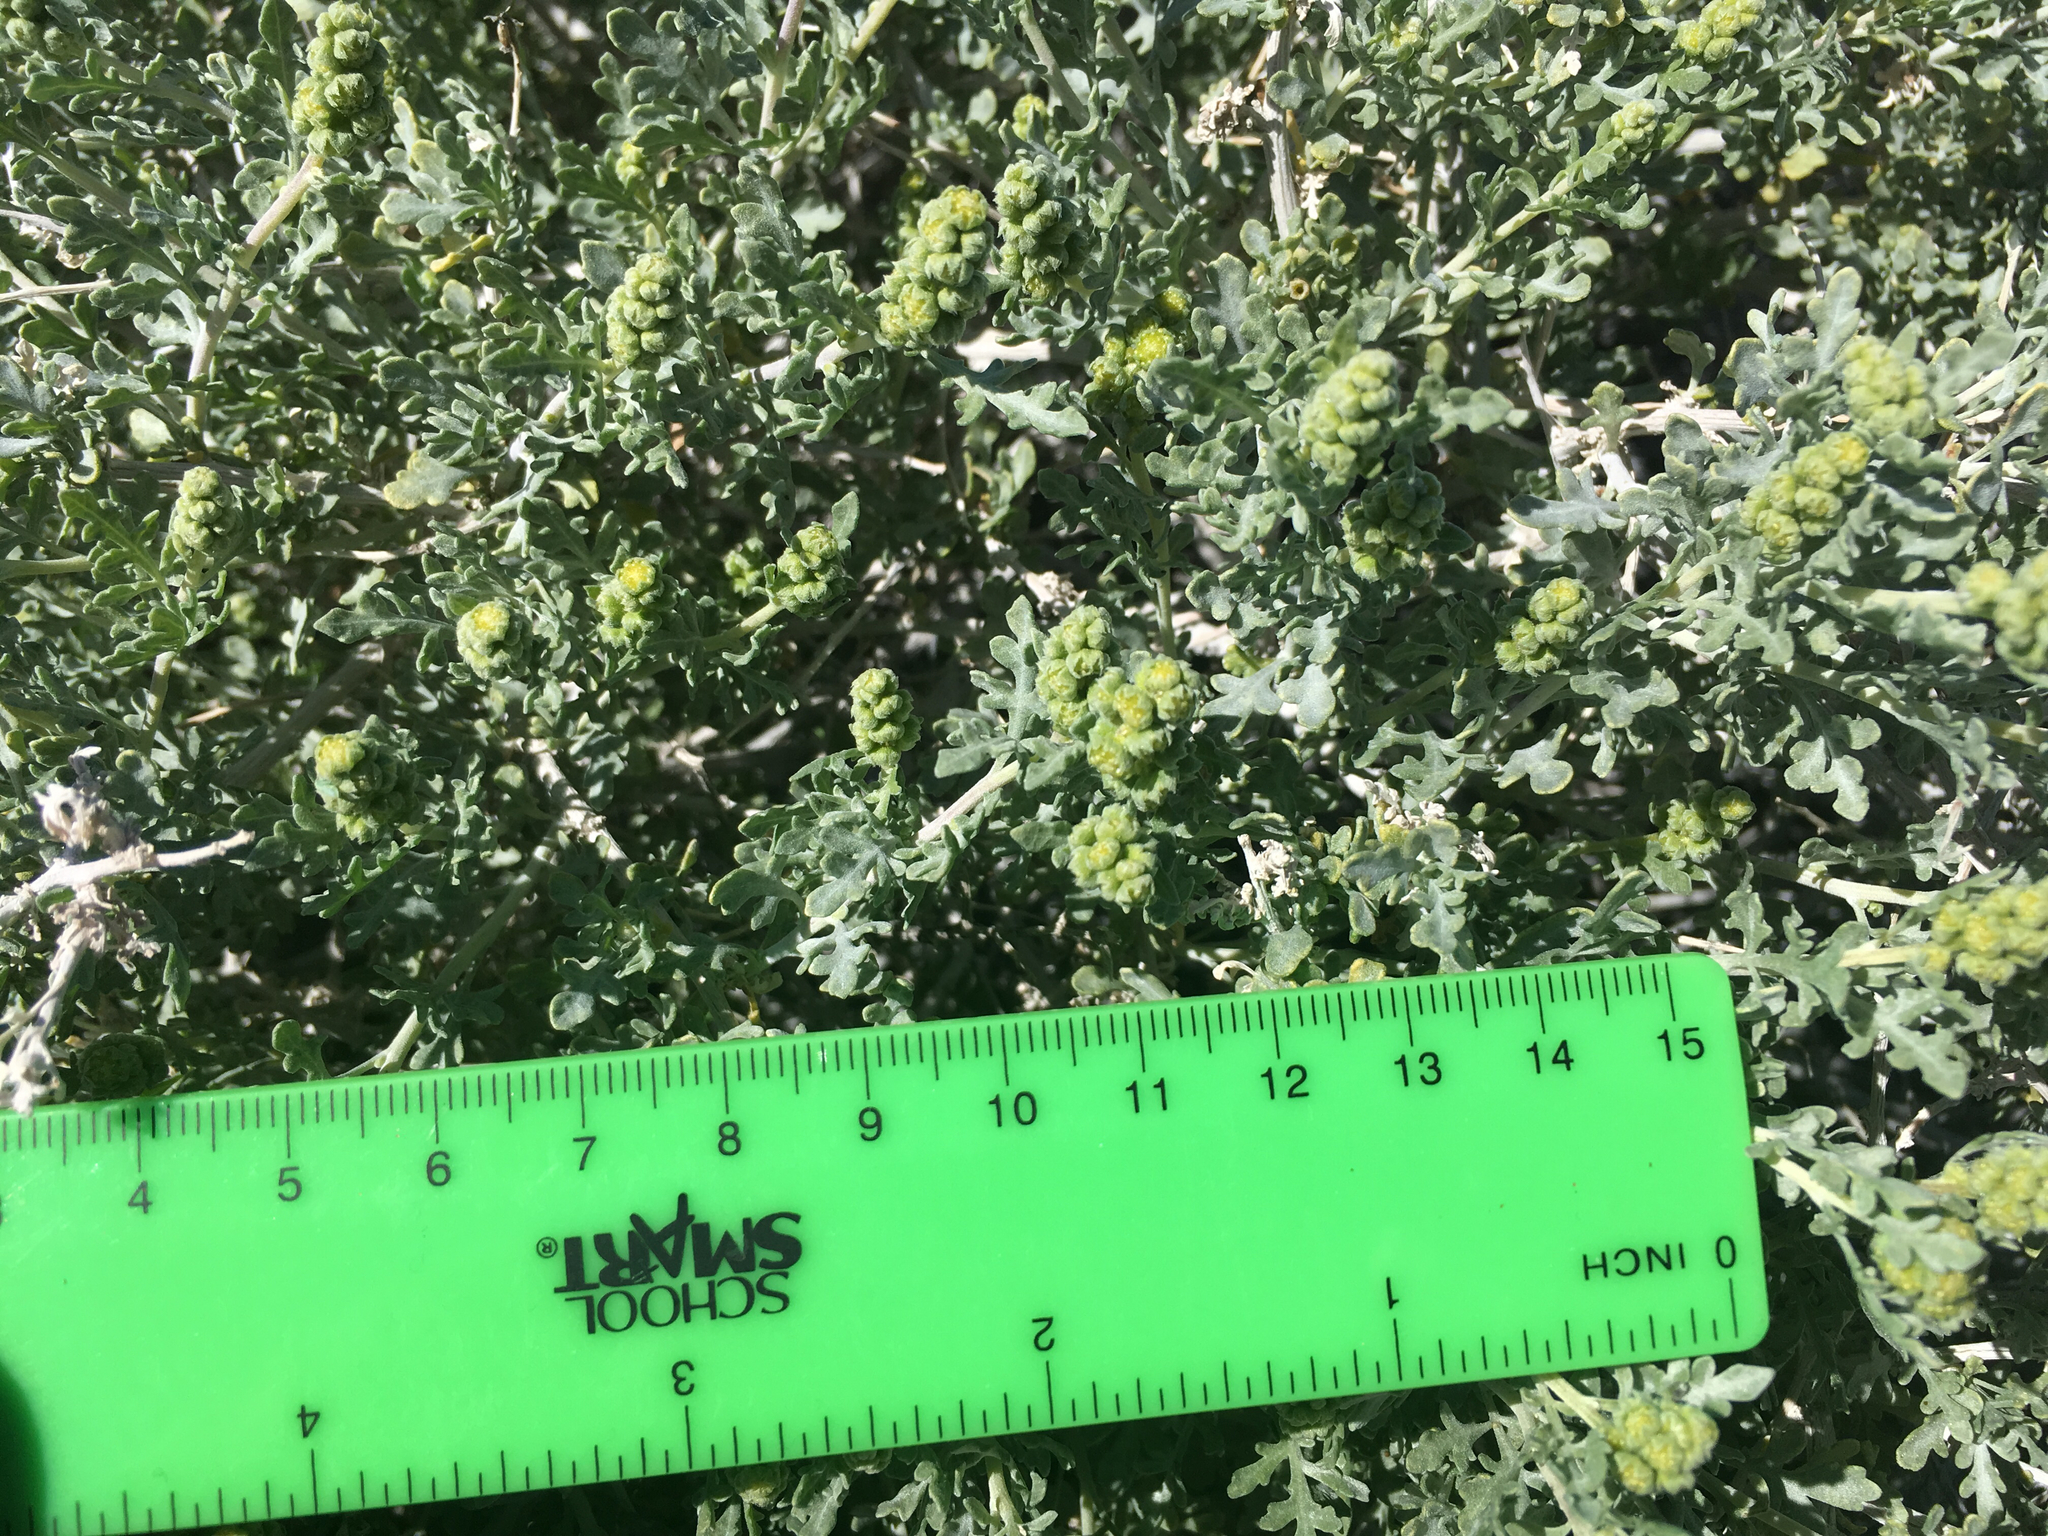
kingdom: Plantae
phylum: Tracheophyta
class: Magnoliopsida
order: Asterales
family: Asteraceae
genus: Ambrosia
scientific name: Ambrosia dumosa
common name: Bur-sage
